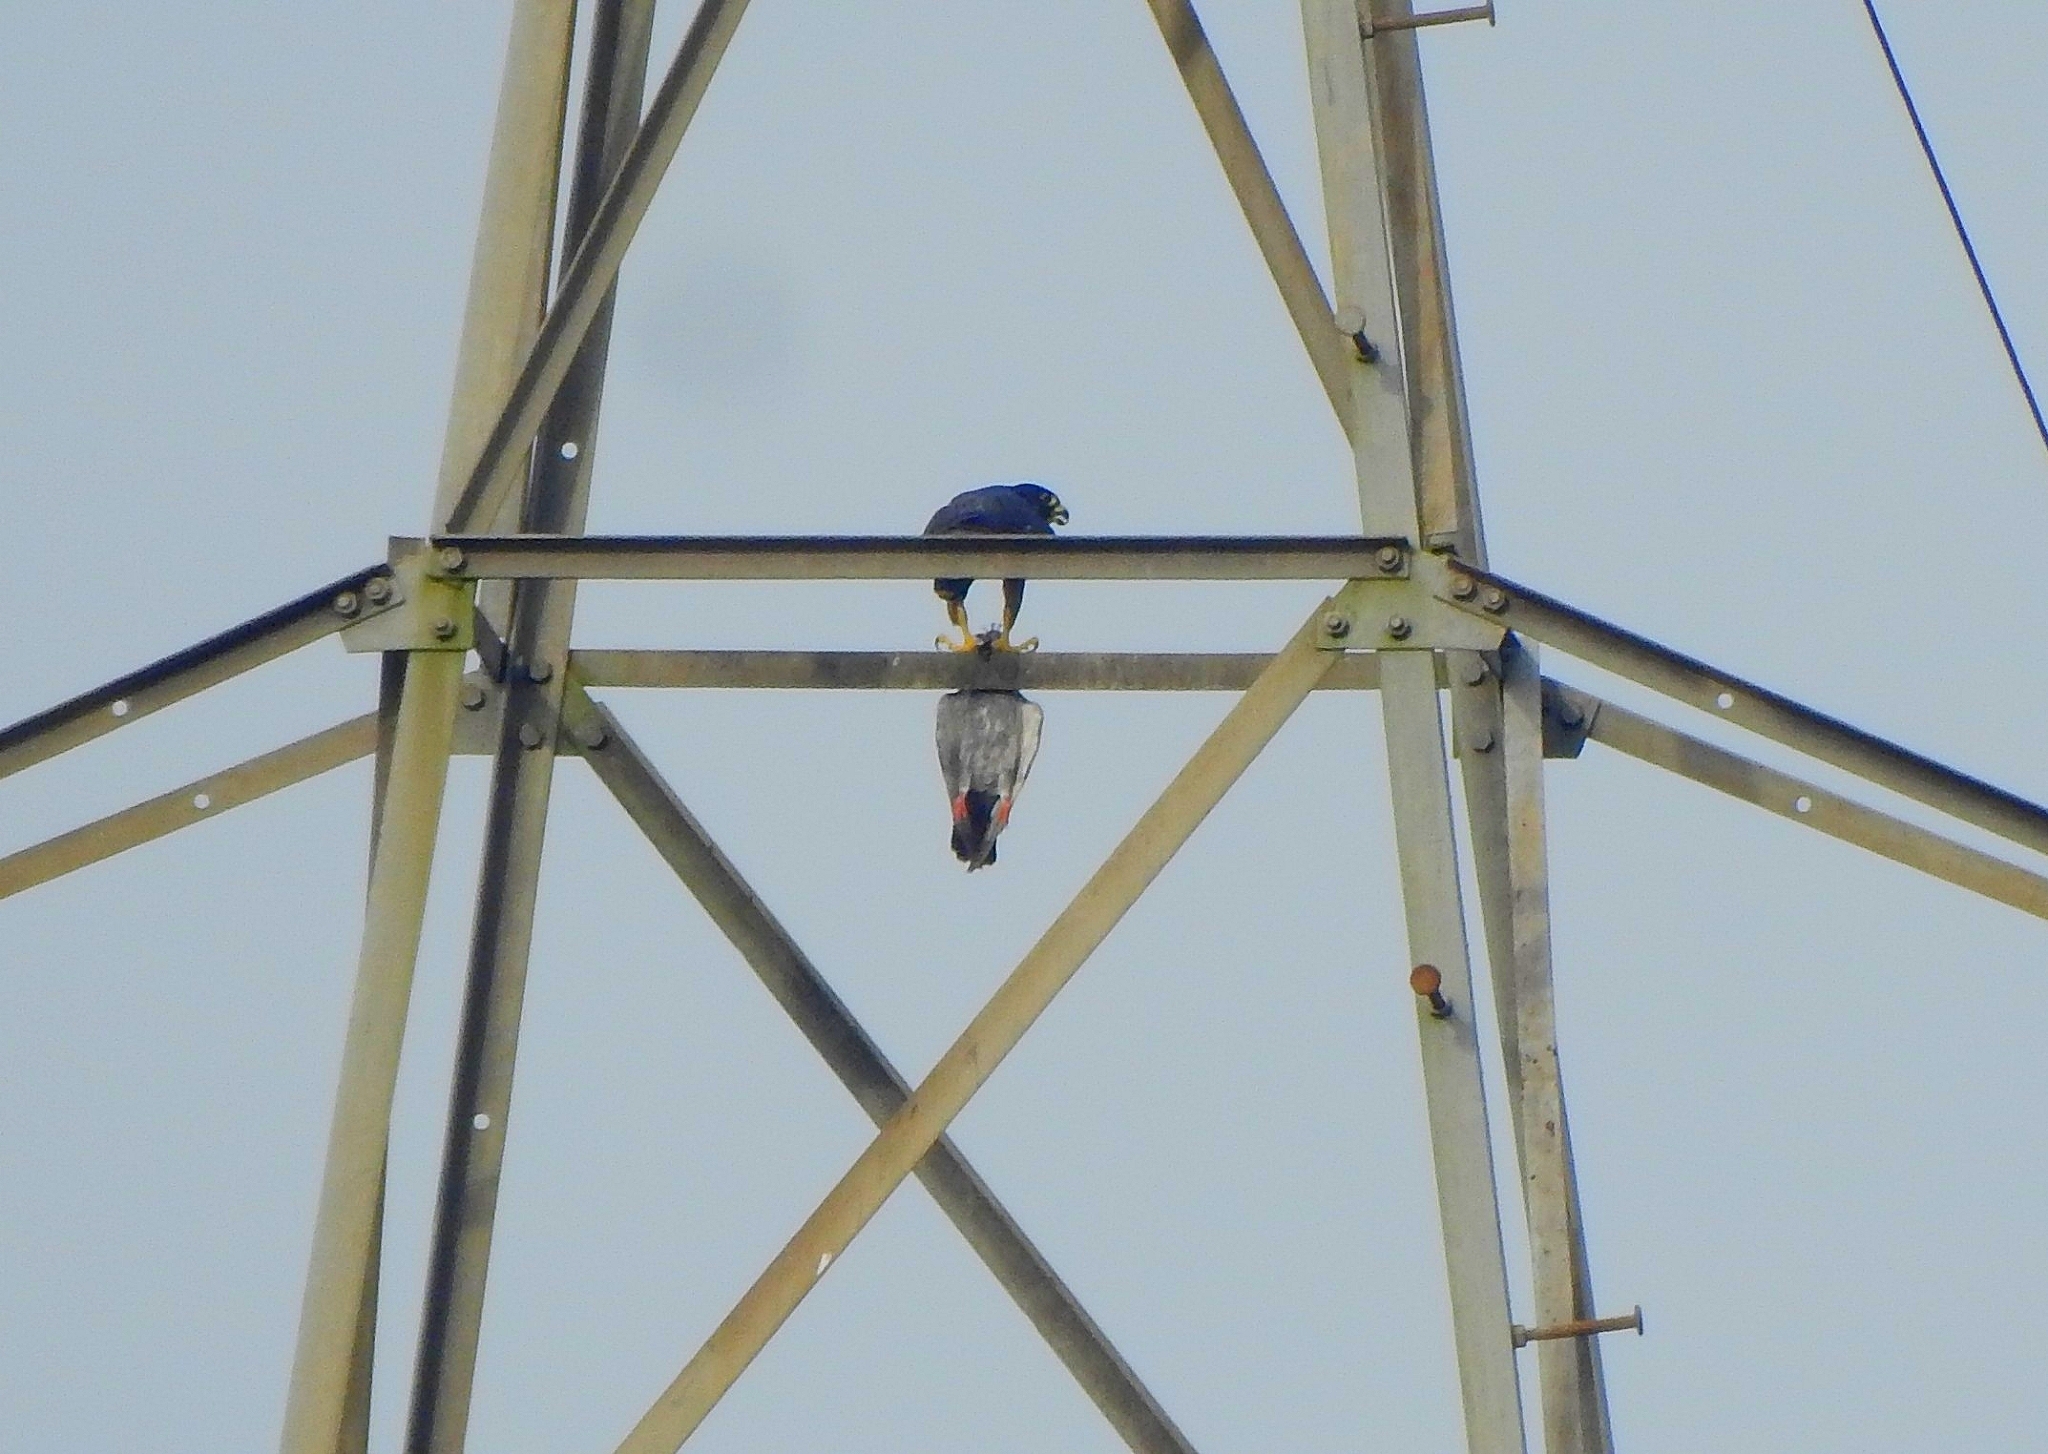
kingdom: Animalia
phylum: Chordata
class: Aves
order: Falconiformes
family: Falconidae
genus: Falco
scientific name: Falco peregrinus
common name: Peregrine falcon
